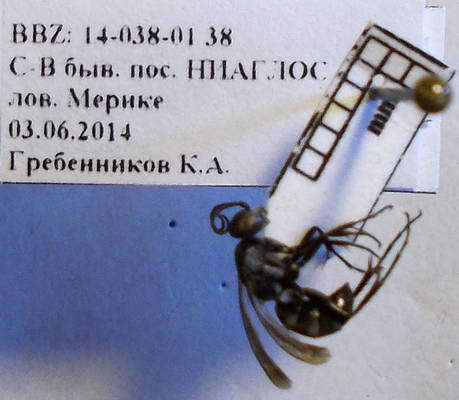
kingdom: Animalia
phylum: Arthropoda
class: Insecta
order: Hymenoptera
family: Pompilidae
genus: Amblyellus
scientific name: Amblyellus hasdrubal
